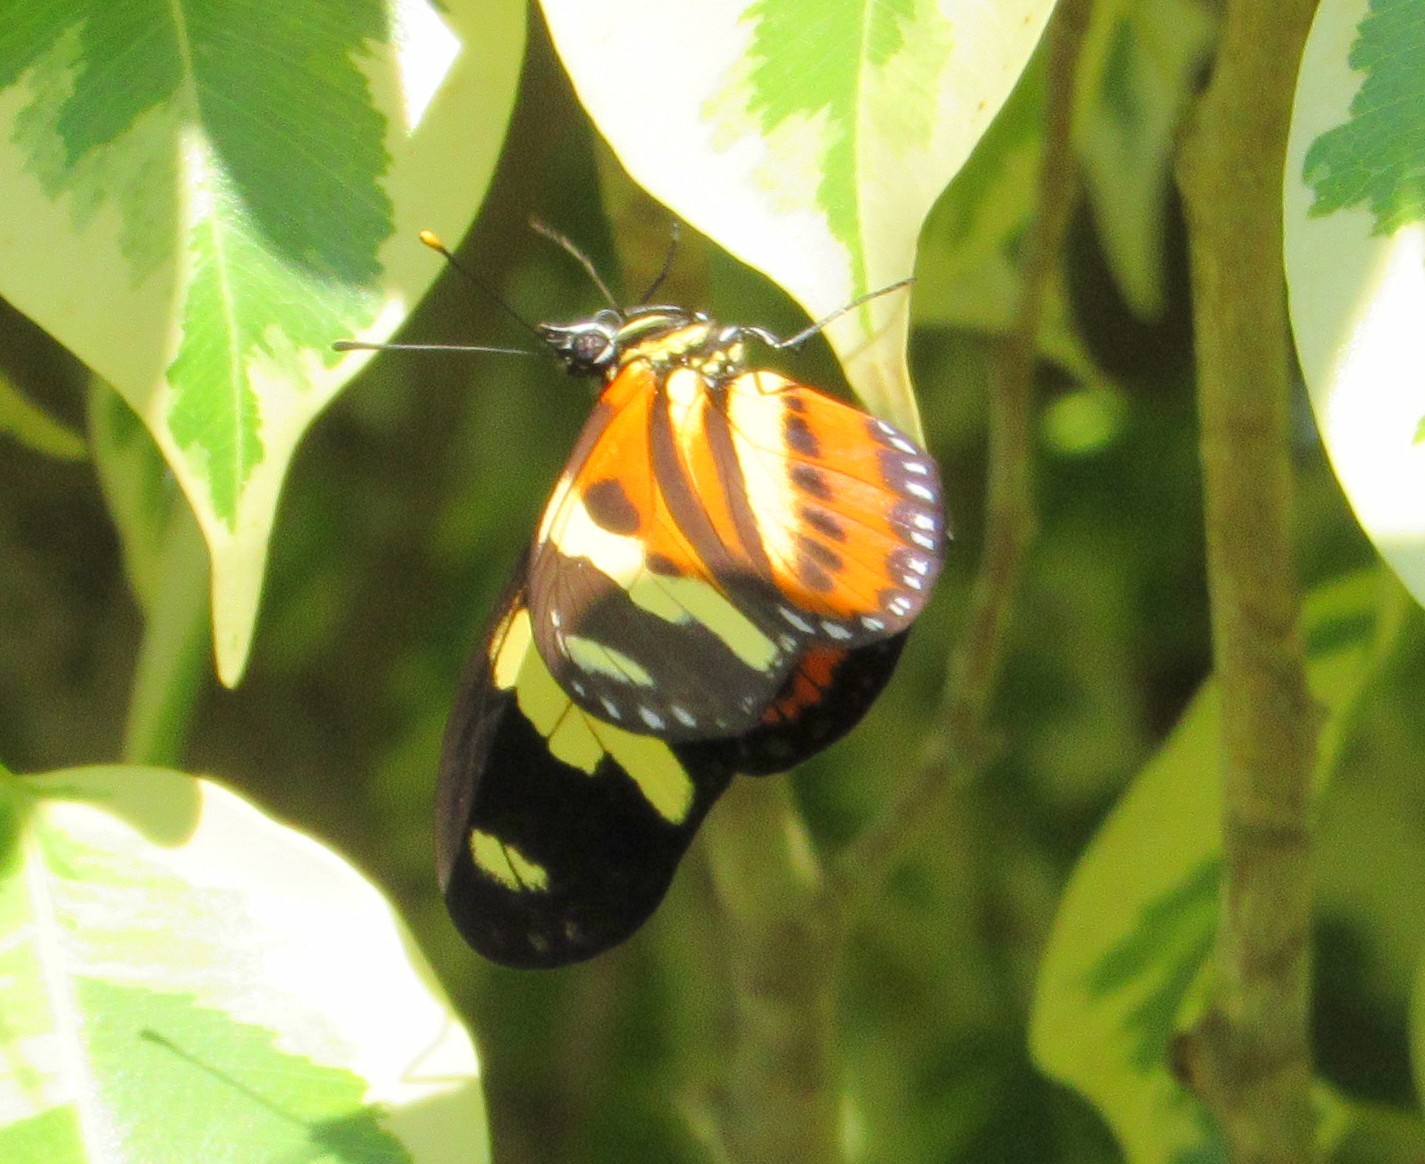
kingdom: Animalia
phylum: Arthropoda
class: Insecta
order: Lepidoptera
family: Nymphalidae
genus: Eueides
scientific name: Eueides isabella
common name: Isabella's longwing
